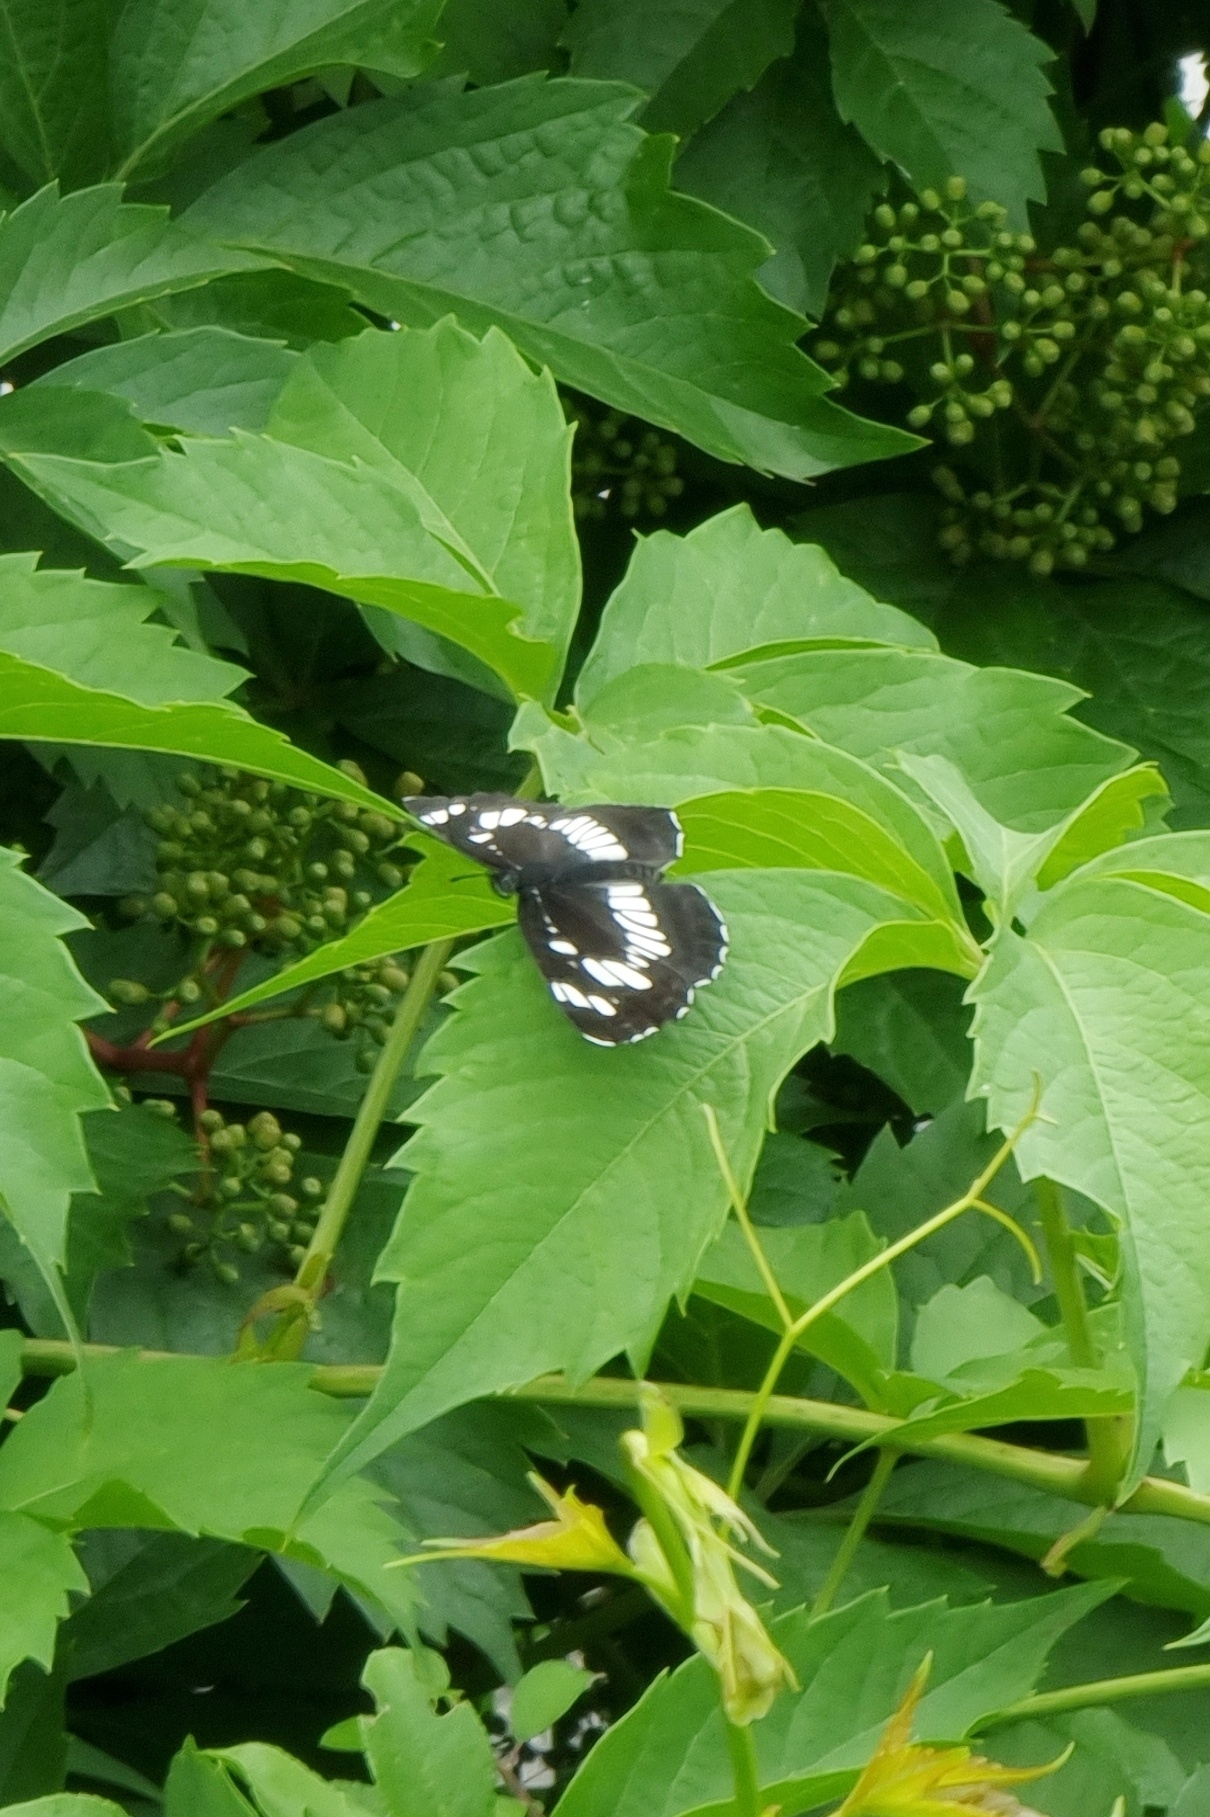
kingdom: Animalia
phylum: Arthropoda
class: Insecta
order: Lepidoptera
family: Nymphalidae
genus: Neptis
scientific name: Neptis rivularis
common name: Hungarian glider
